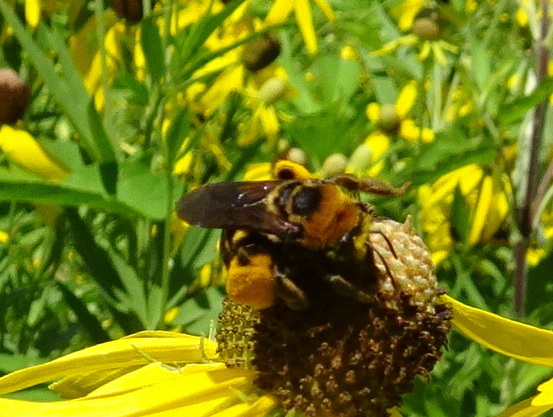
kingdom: Animalia
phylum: Arthropoda
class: Insecta
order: Hymenoptera
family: Apidae
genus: Svastra
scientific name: Svastra obliqua
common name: Oblique longhorn
